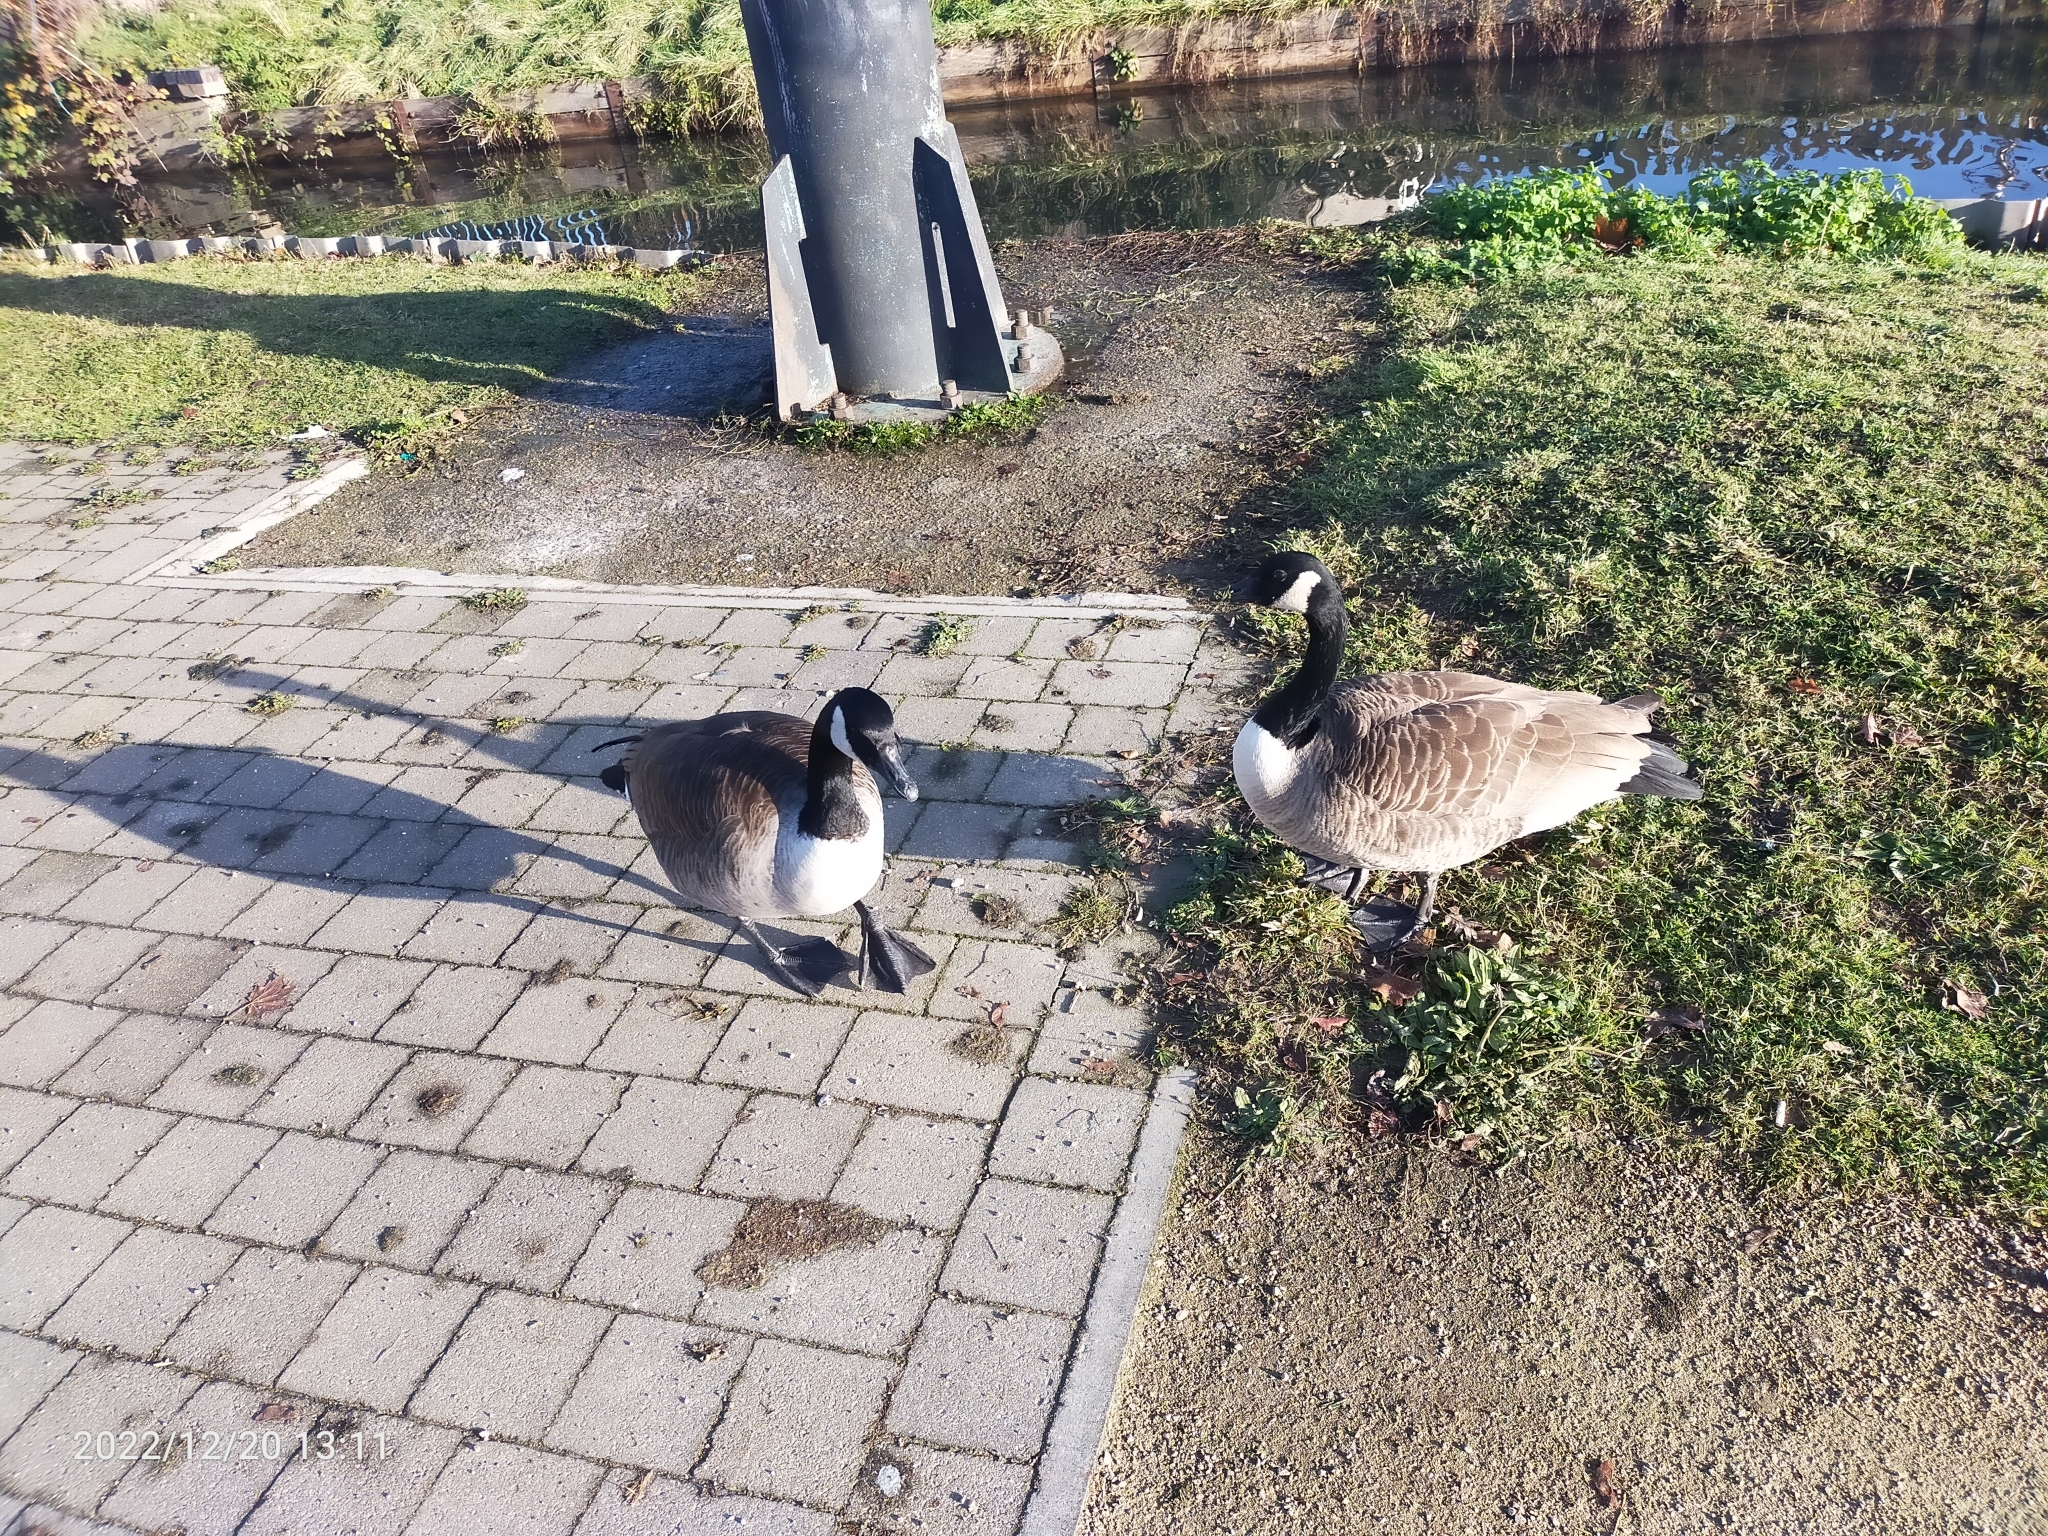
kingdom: Animalia
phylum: Chordata
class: Aves
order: Anseriformes
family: Anatidae
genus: Branta
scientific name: Branta canadensis
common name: Canada goose
